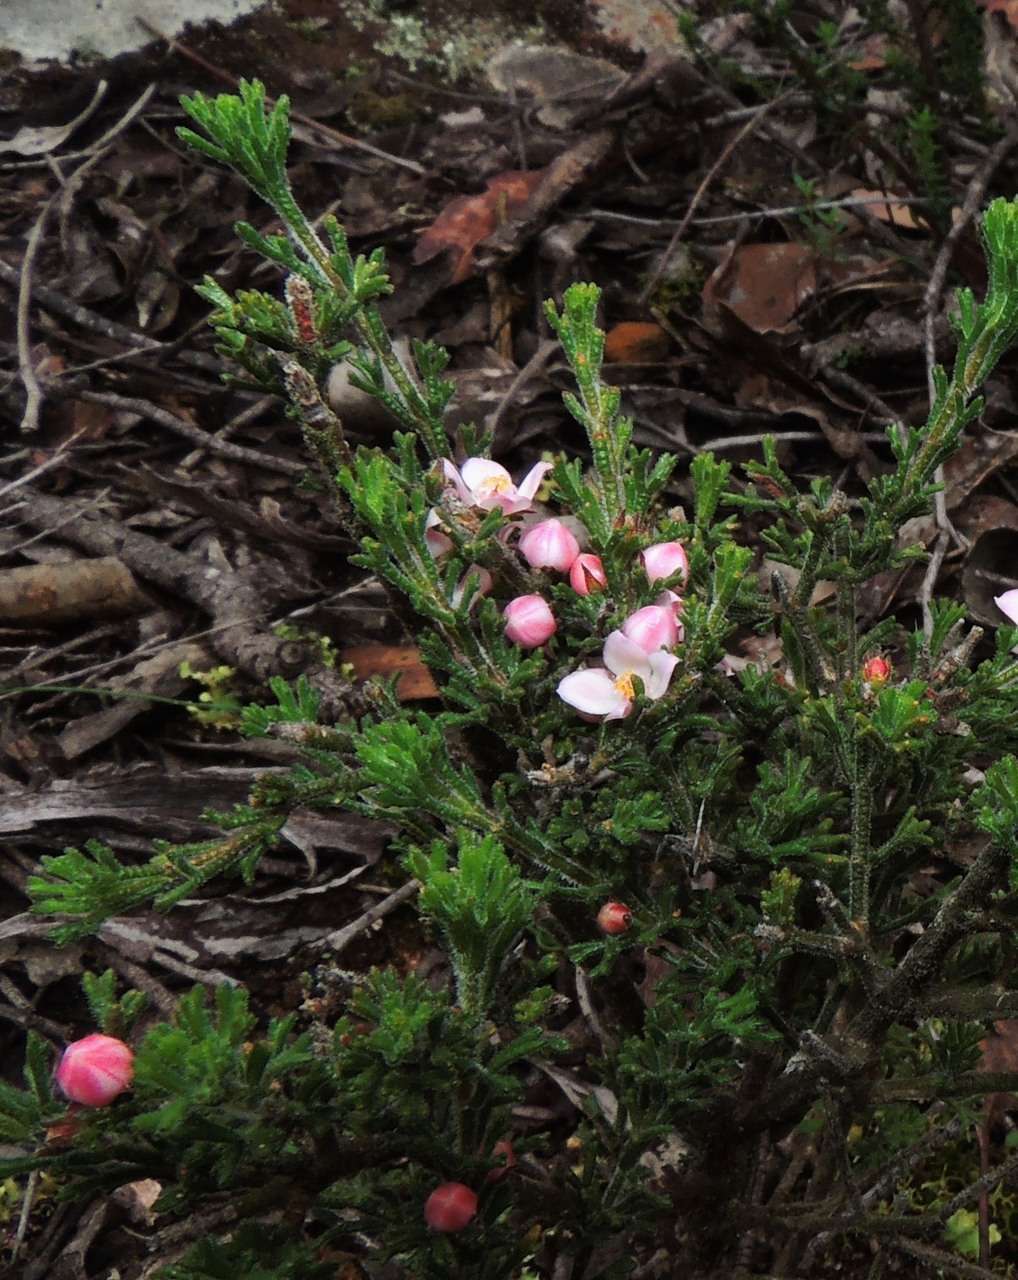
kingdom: Plantae
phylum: Tracheophyta
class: Magnoliopsida
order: Sapindales
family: Rutaceae
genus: Cyanothamnus
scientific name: Cyanothamnus anemonifolius
